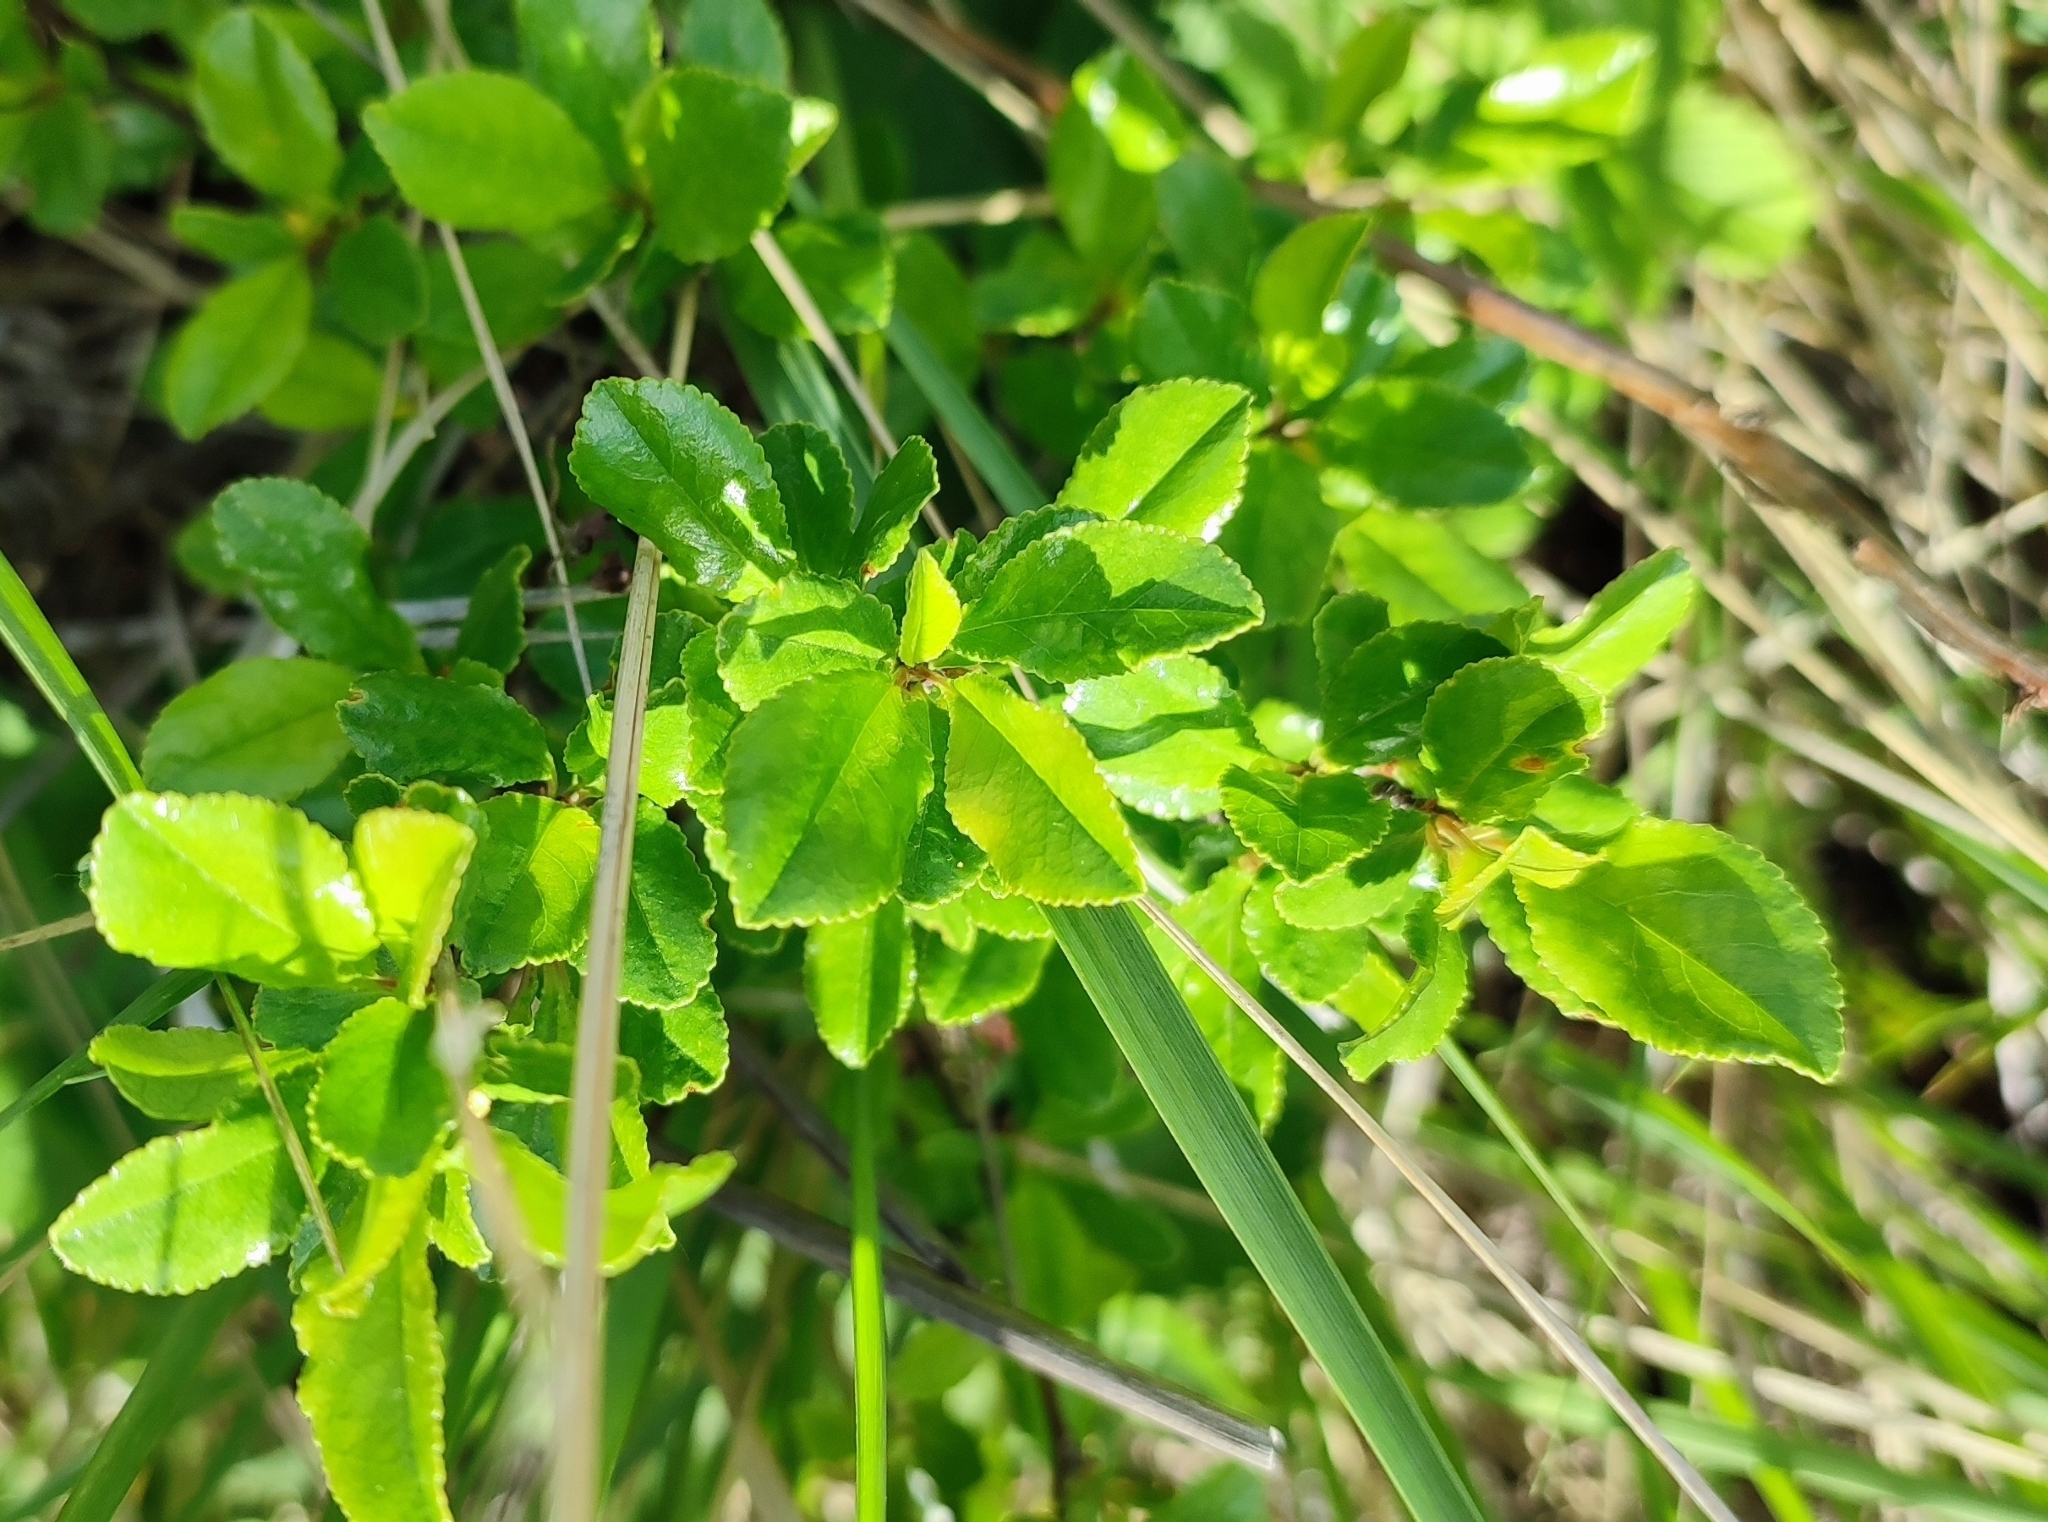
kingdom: Plantae
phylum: Tracheophyta
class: Magnoliopsida
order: Rosales
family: Rosaceae
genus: Prunus
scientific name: Prunus fruticosa
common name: European dwarf cherry
